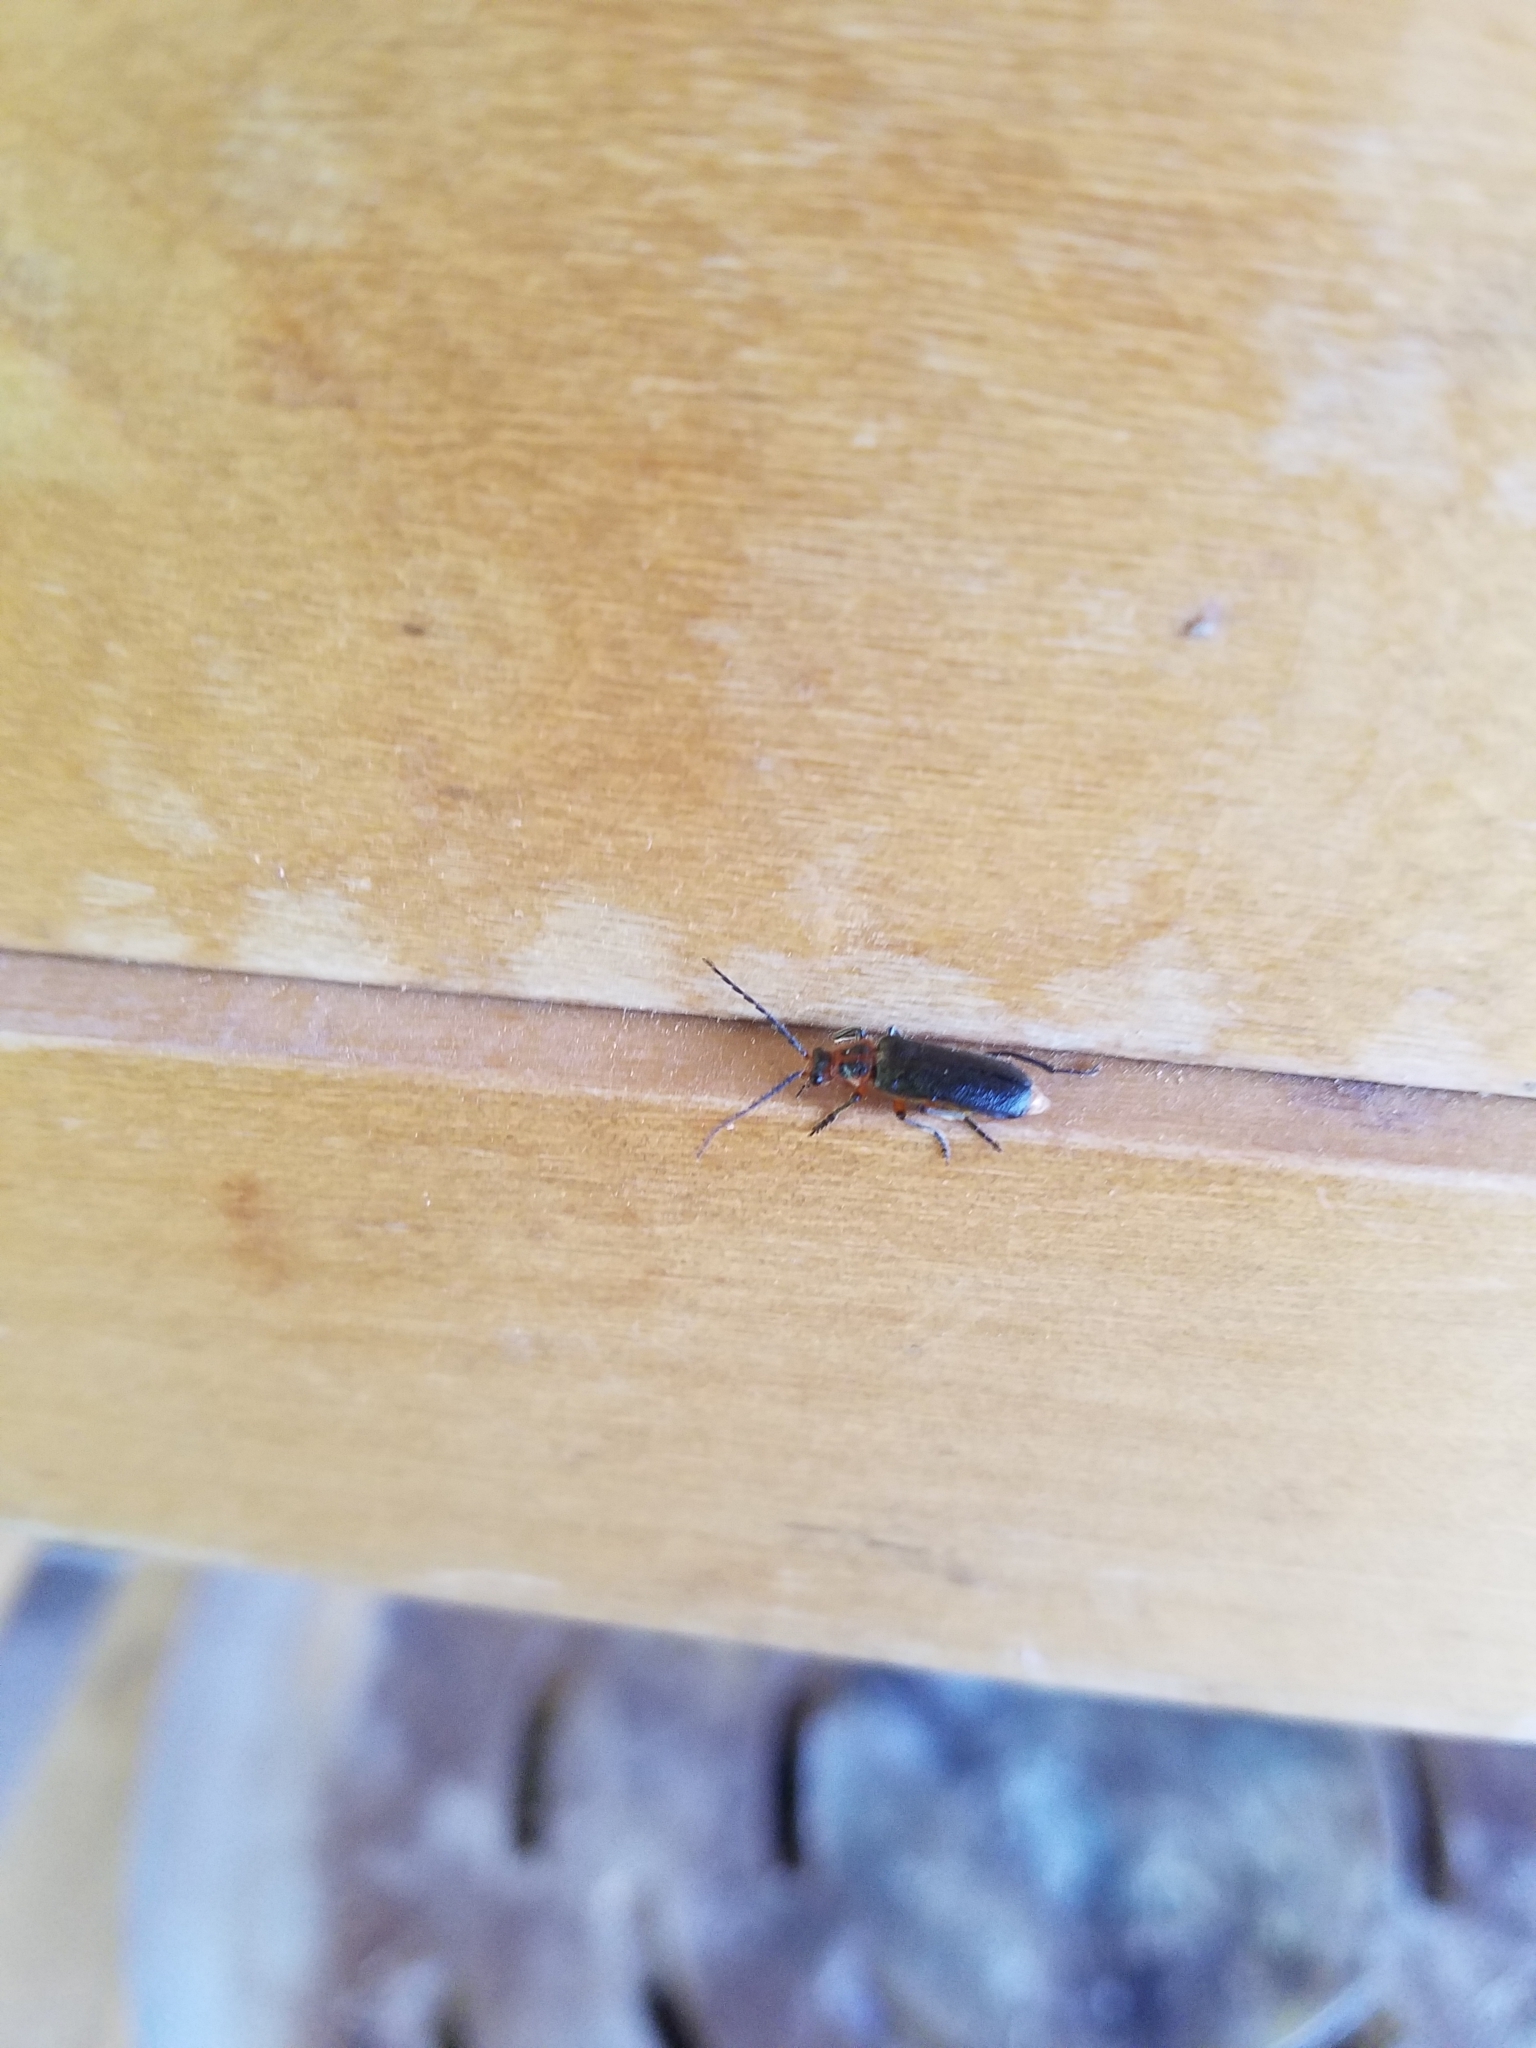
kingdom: Animalia
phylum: Arthropoda
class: Insecta
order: Coleoptera
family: Cantharidae
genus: Atalantycha
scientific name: Atalantycha bilineata
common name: Two-lined leatherwing
